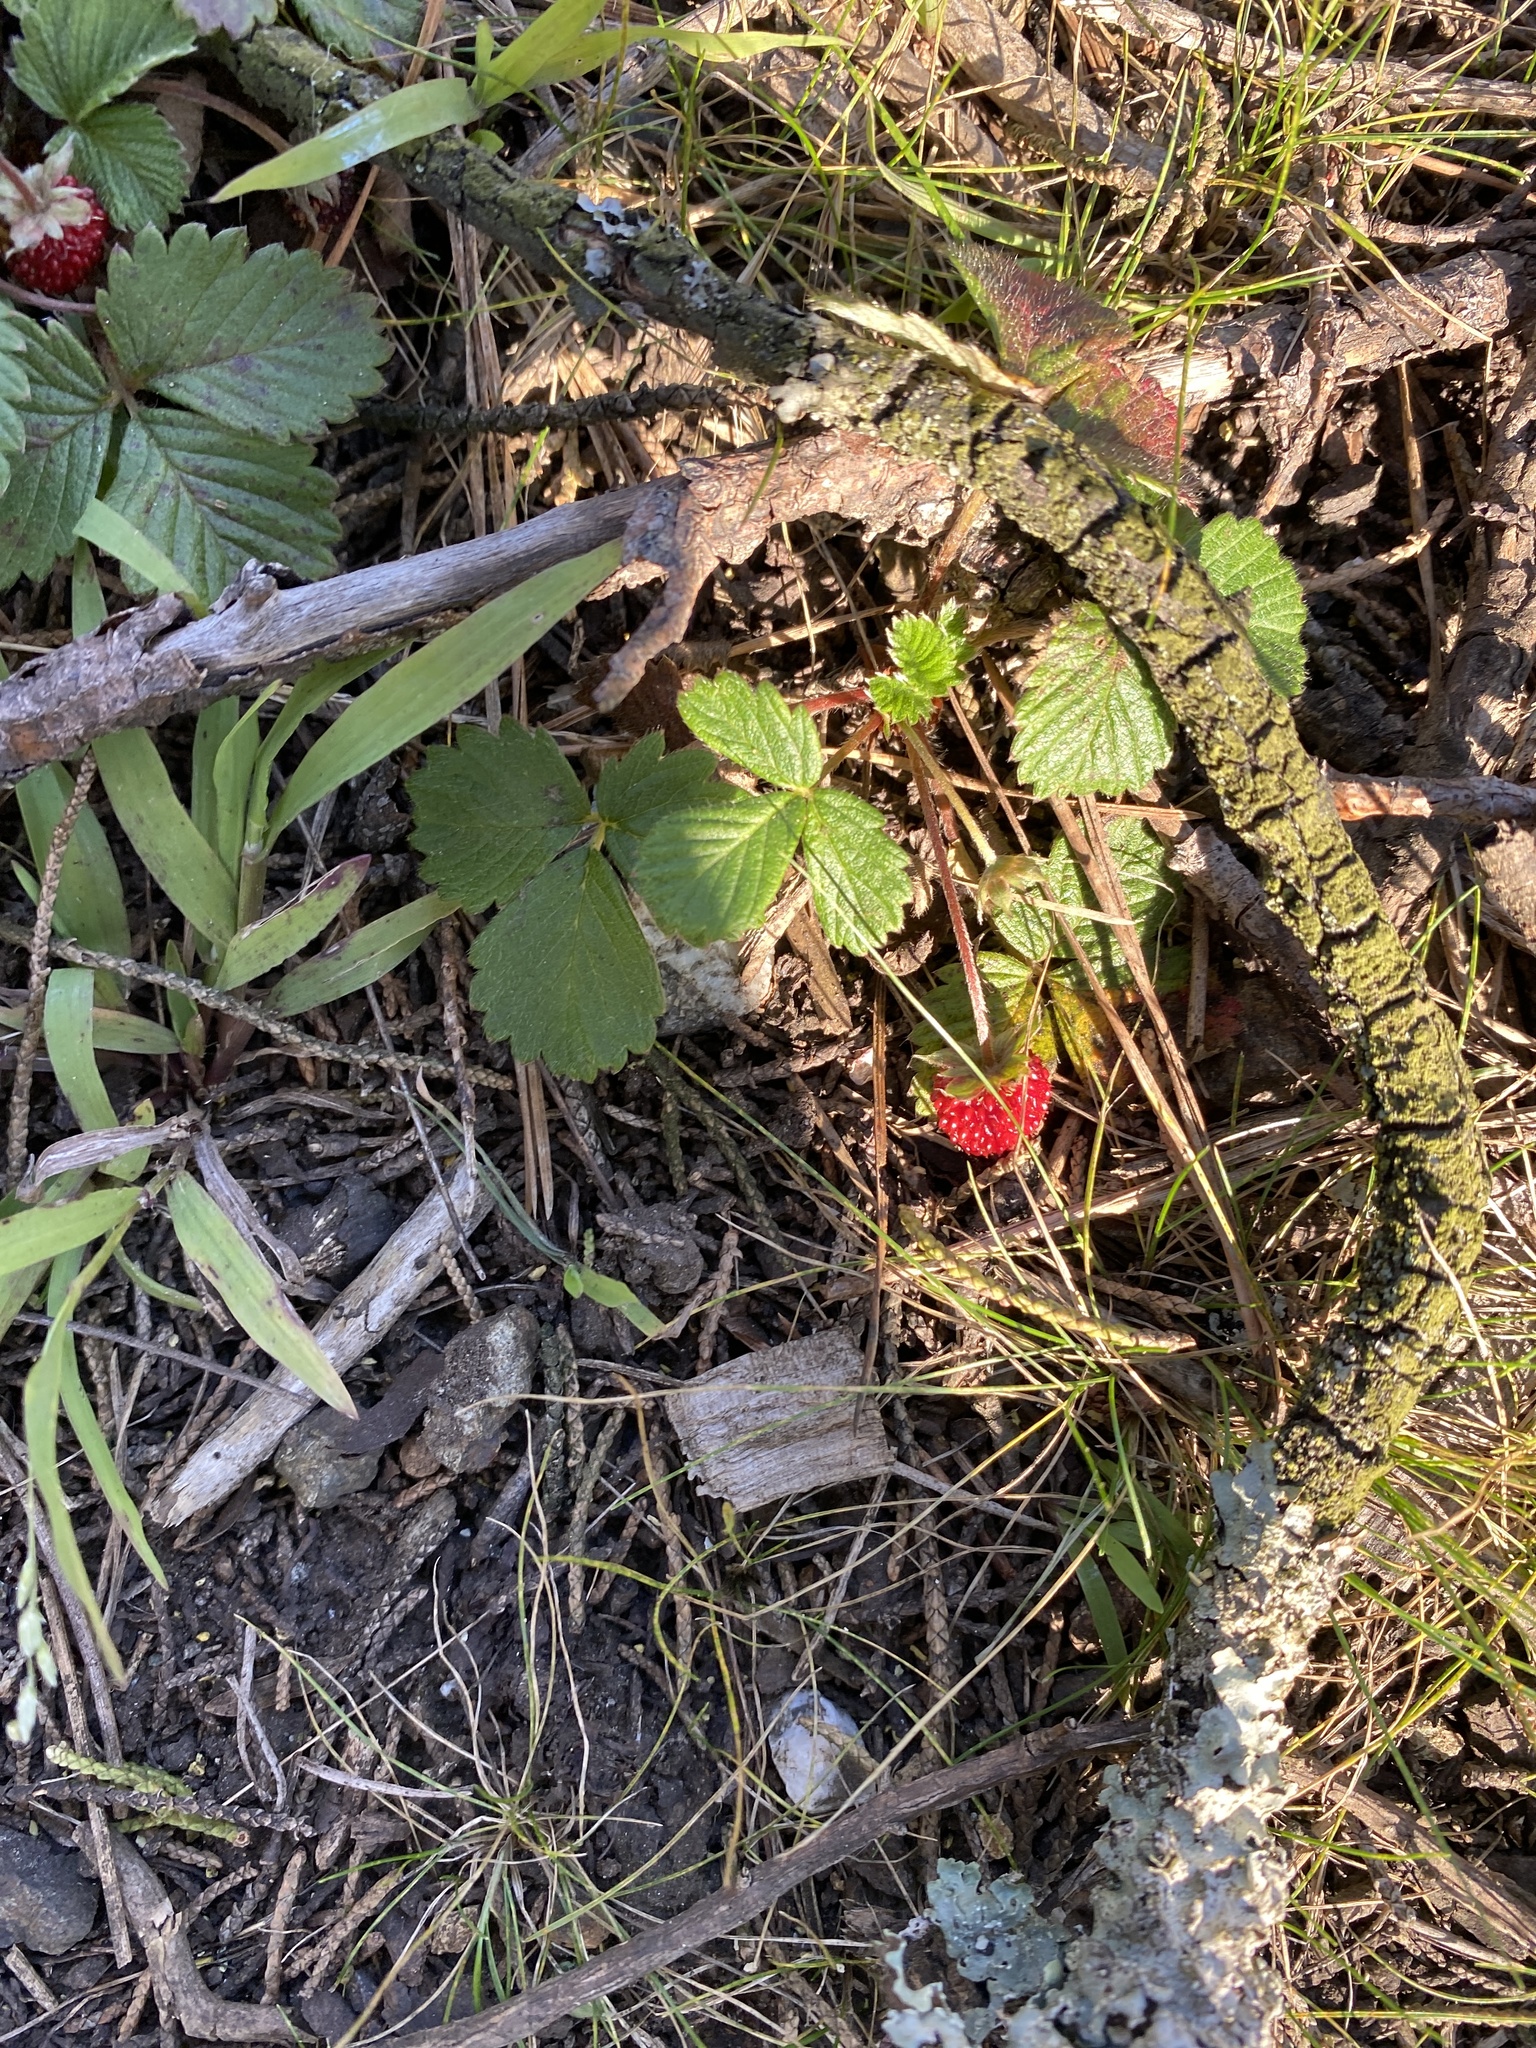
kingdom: Plantae
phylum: Tracheophyta
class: Magnoliopsida
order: Rosales
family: Rosaceae
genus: Fragaria
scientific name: Fragaria vesca
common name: Wild strawberry
